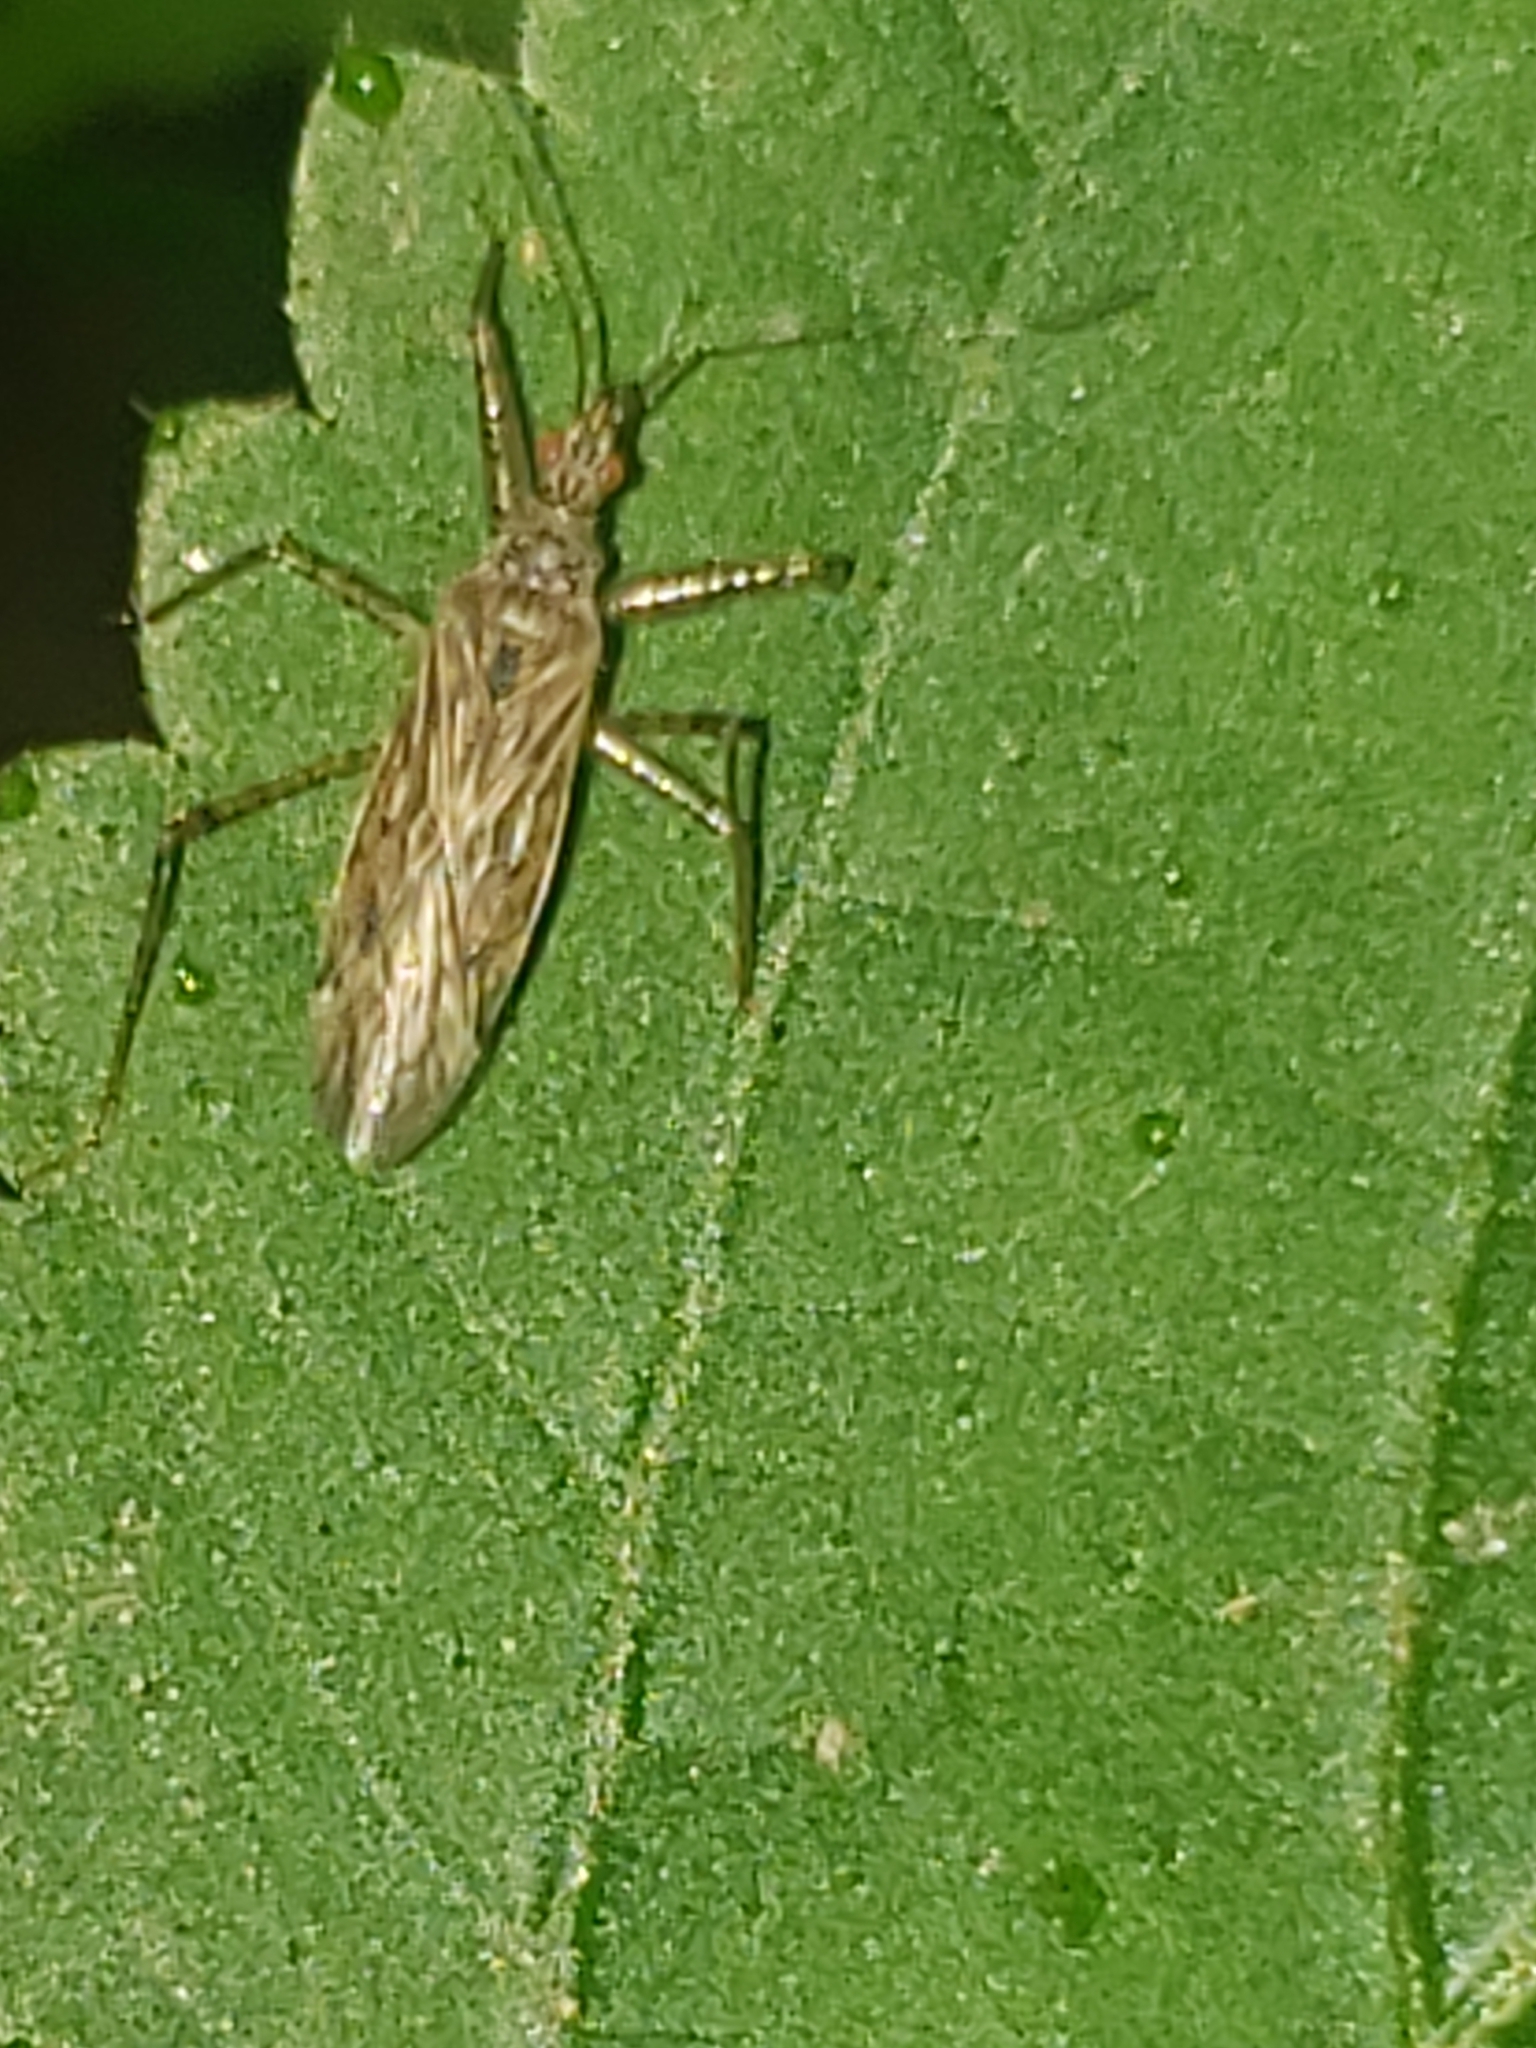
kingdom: Animalia
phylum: Arthropoda
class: Insecta
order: Hemiptera
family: Nabidae
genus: Nabis
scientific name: Nabis roseipennis
